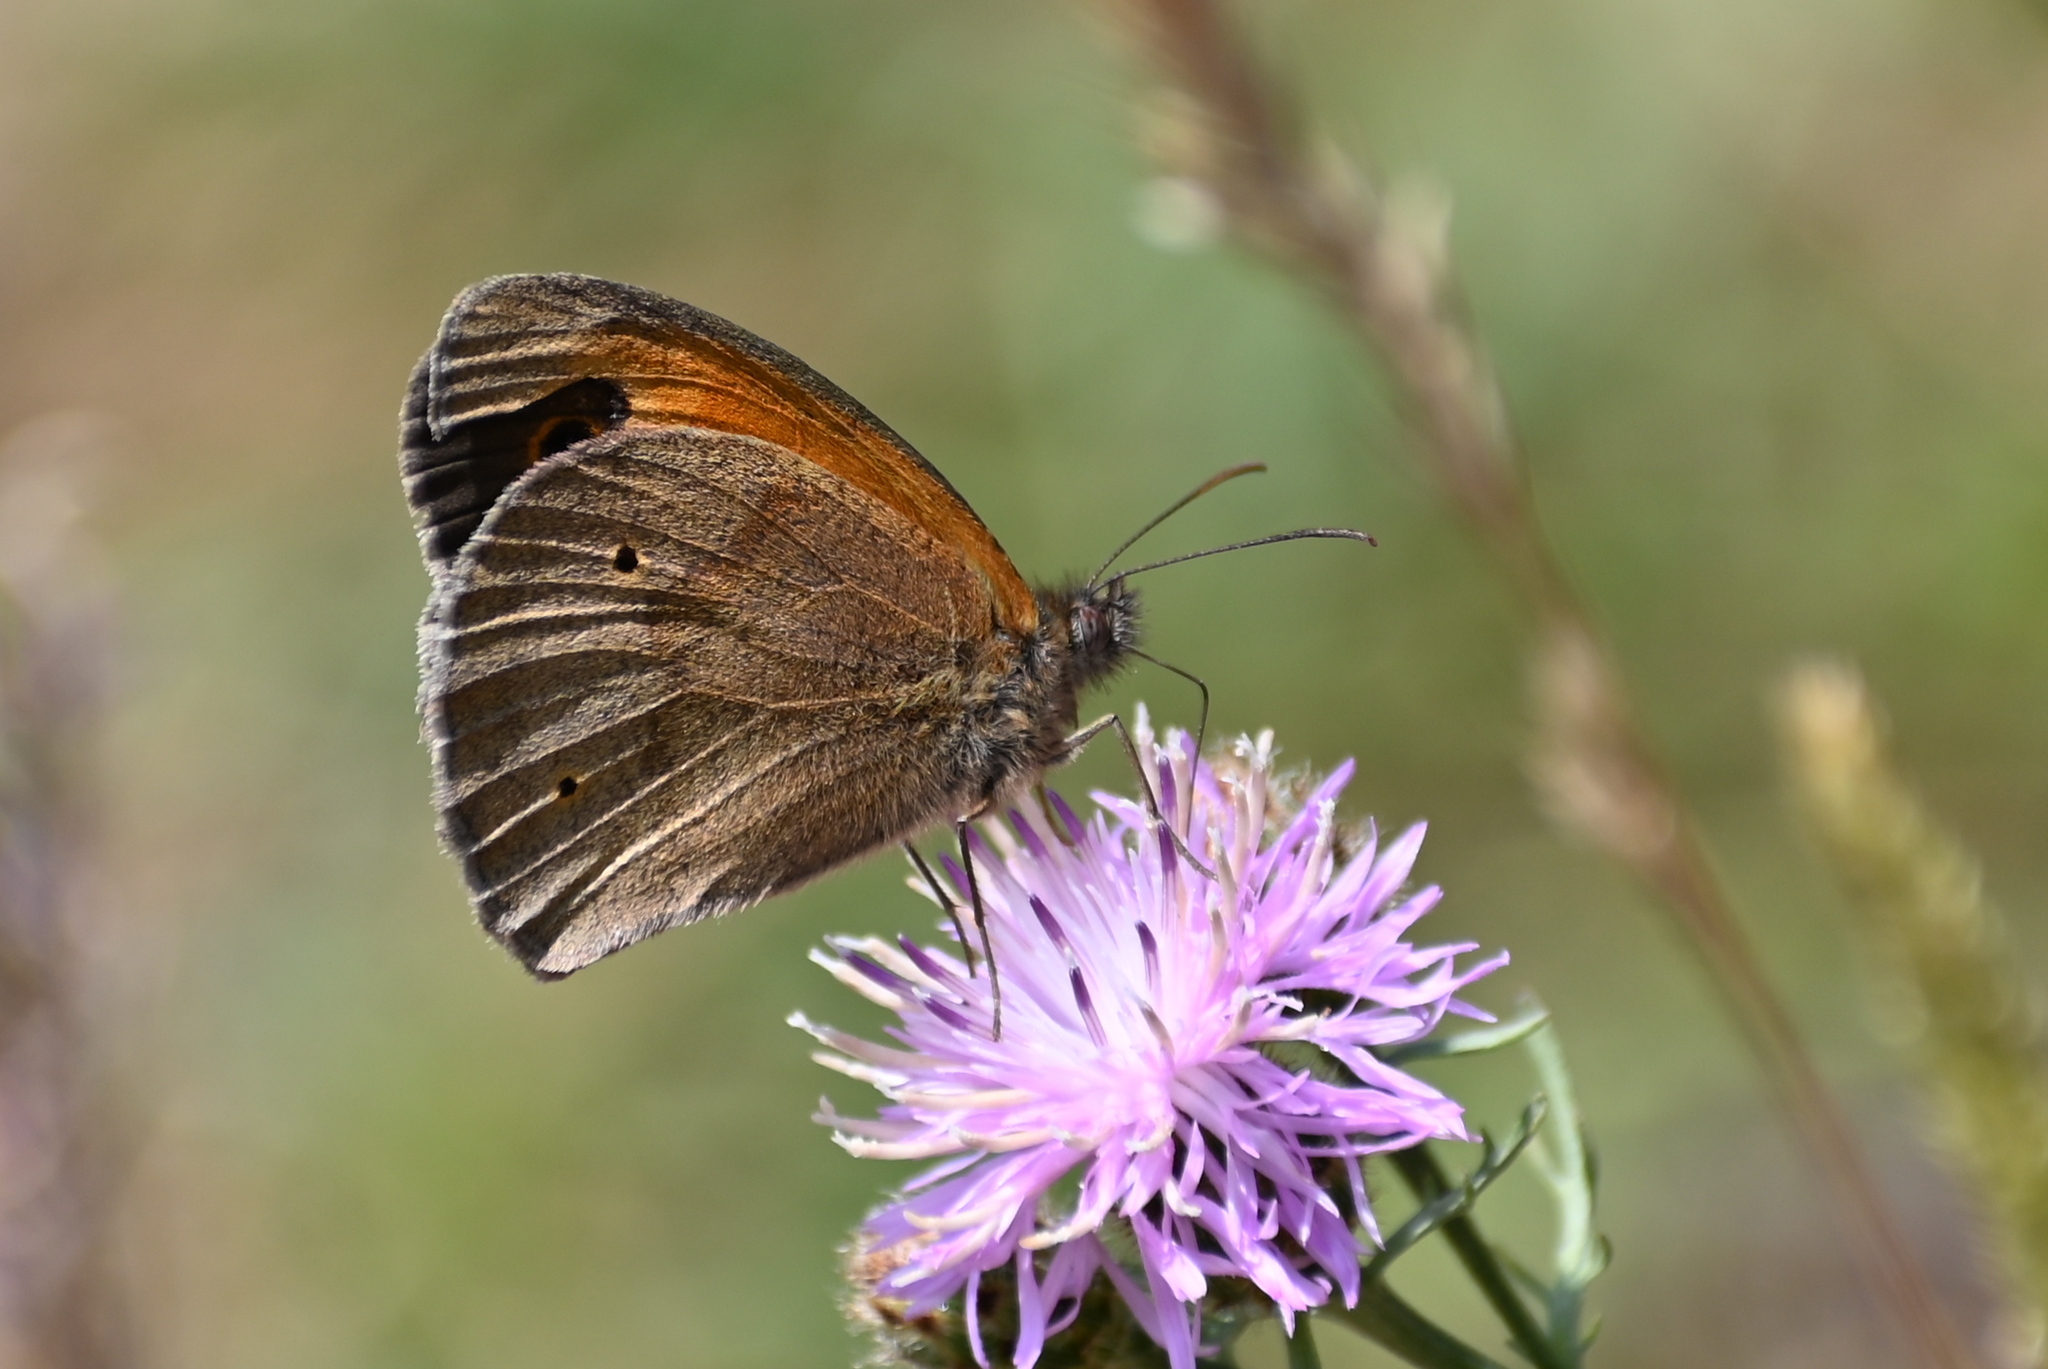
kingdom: Animalia
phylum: Arthropoda
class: Insecta
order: Lepidoptera
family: Nymphalidae
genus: Maniola
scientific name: Maniola jurtina
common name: Meadow brown
